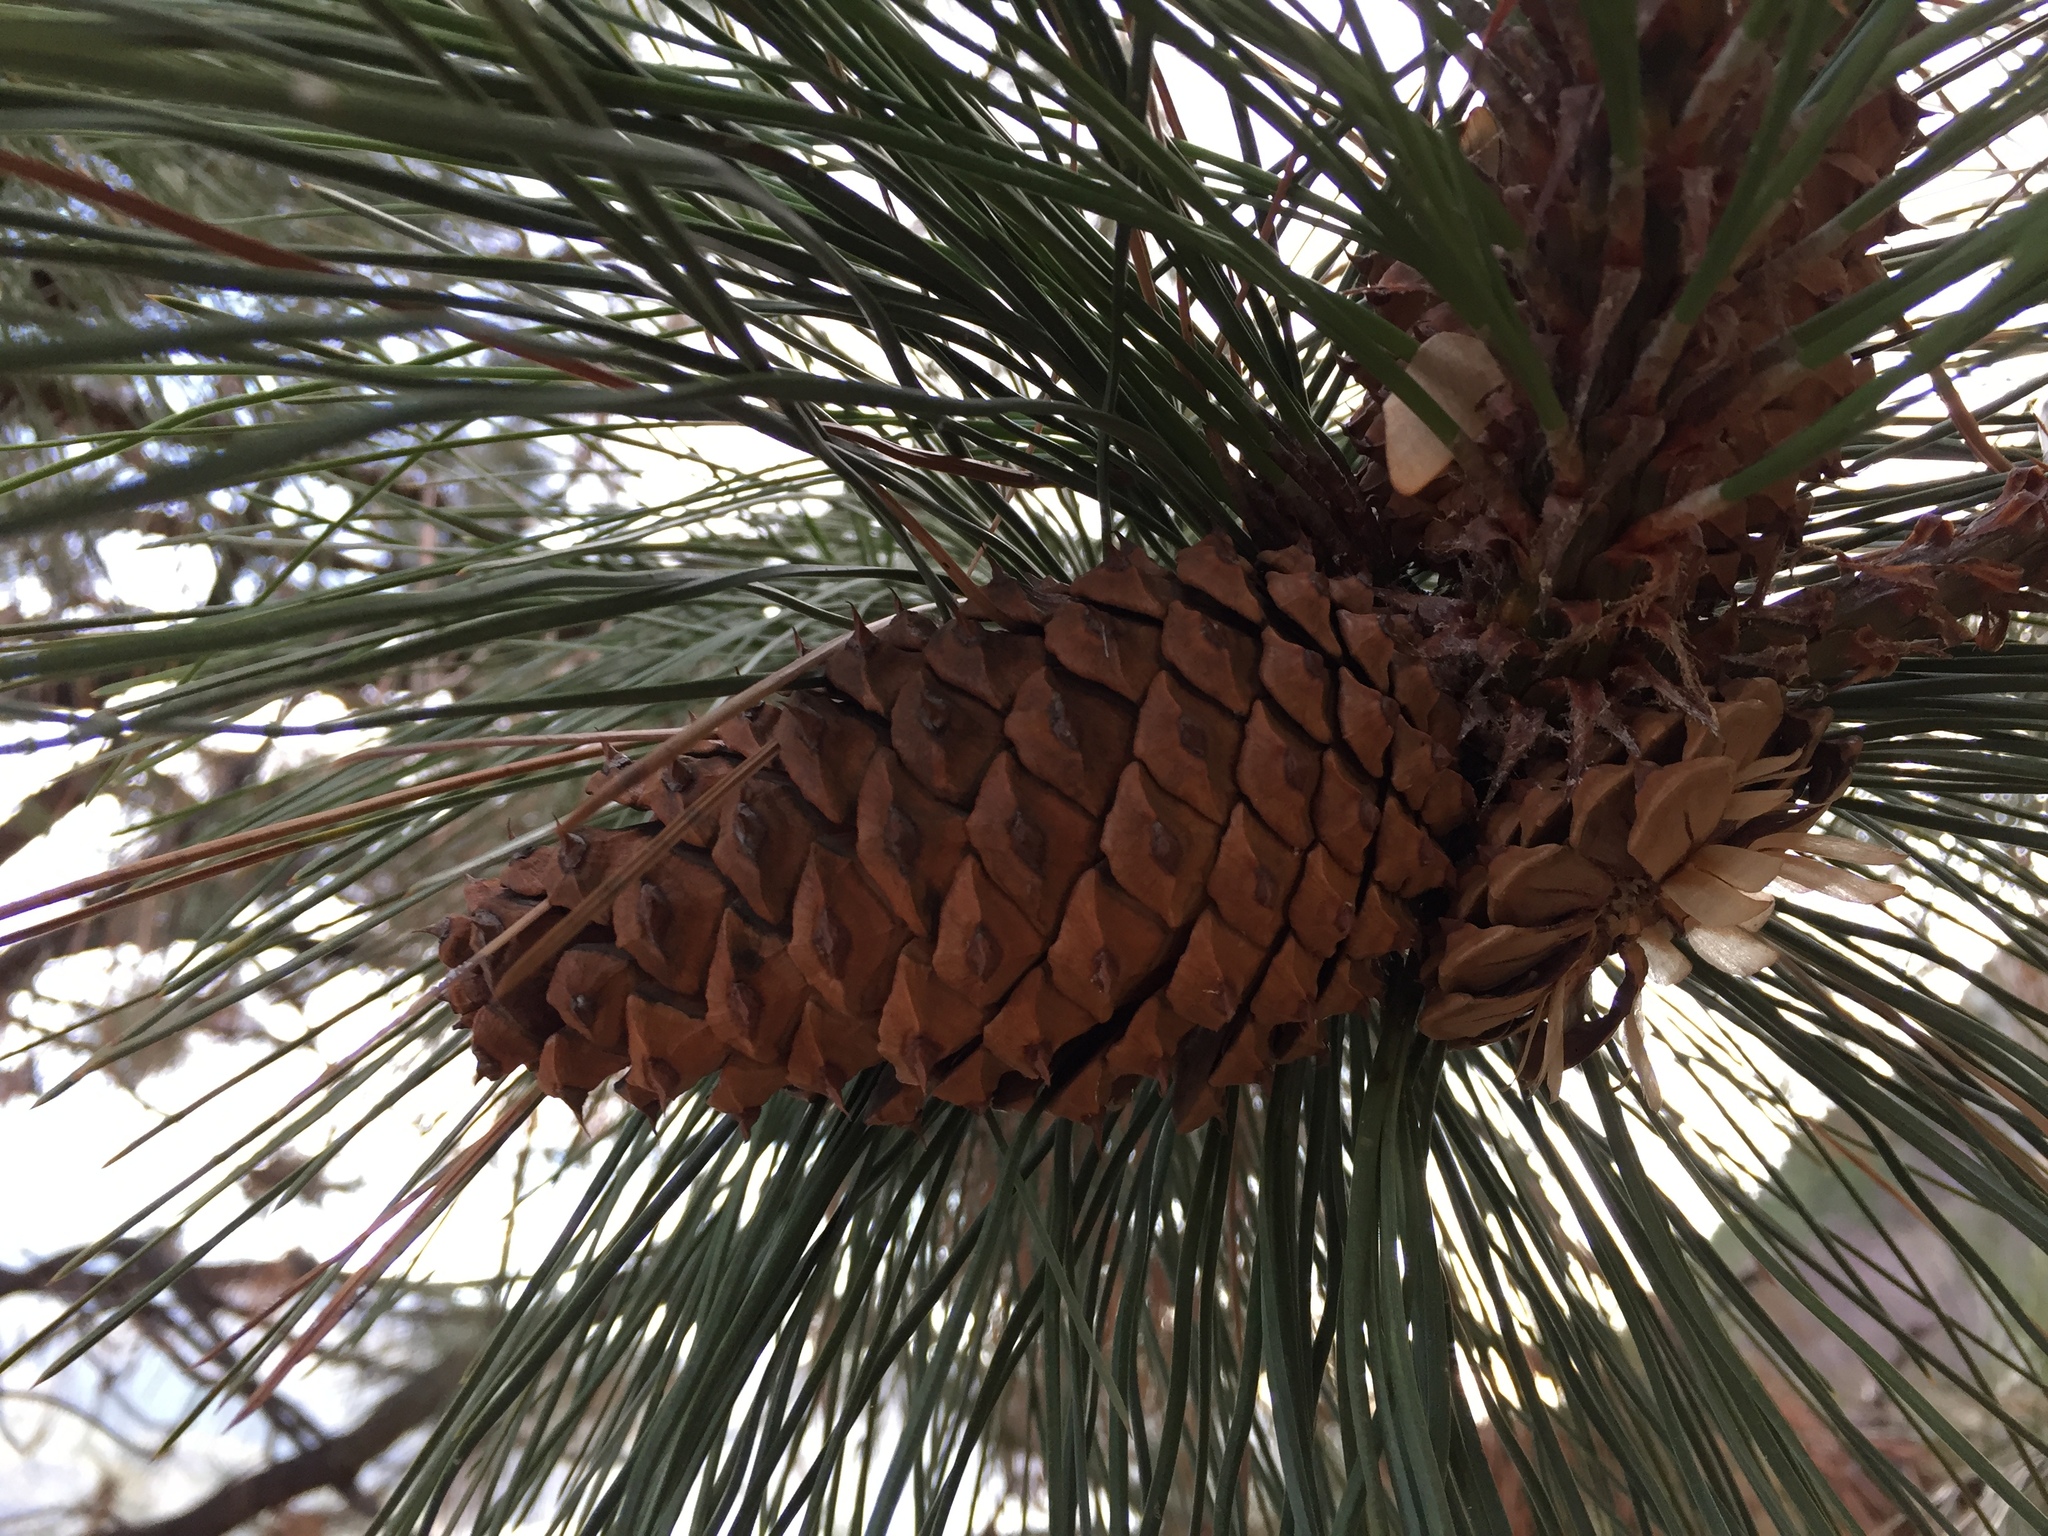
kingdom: Plantae
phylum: Tracheophyta
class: Pinopsida
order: Pinales
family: Pinaceae
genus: Pinus
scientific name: Pinus ponderosa
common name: Western yellow-pine
